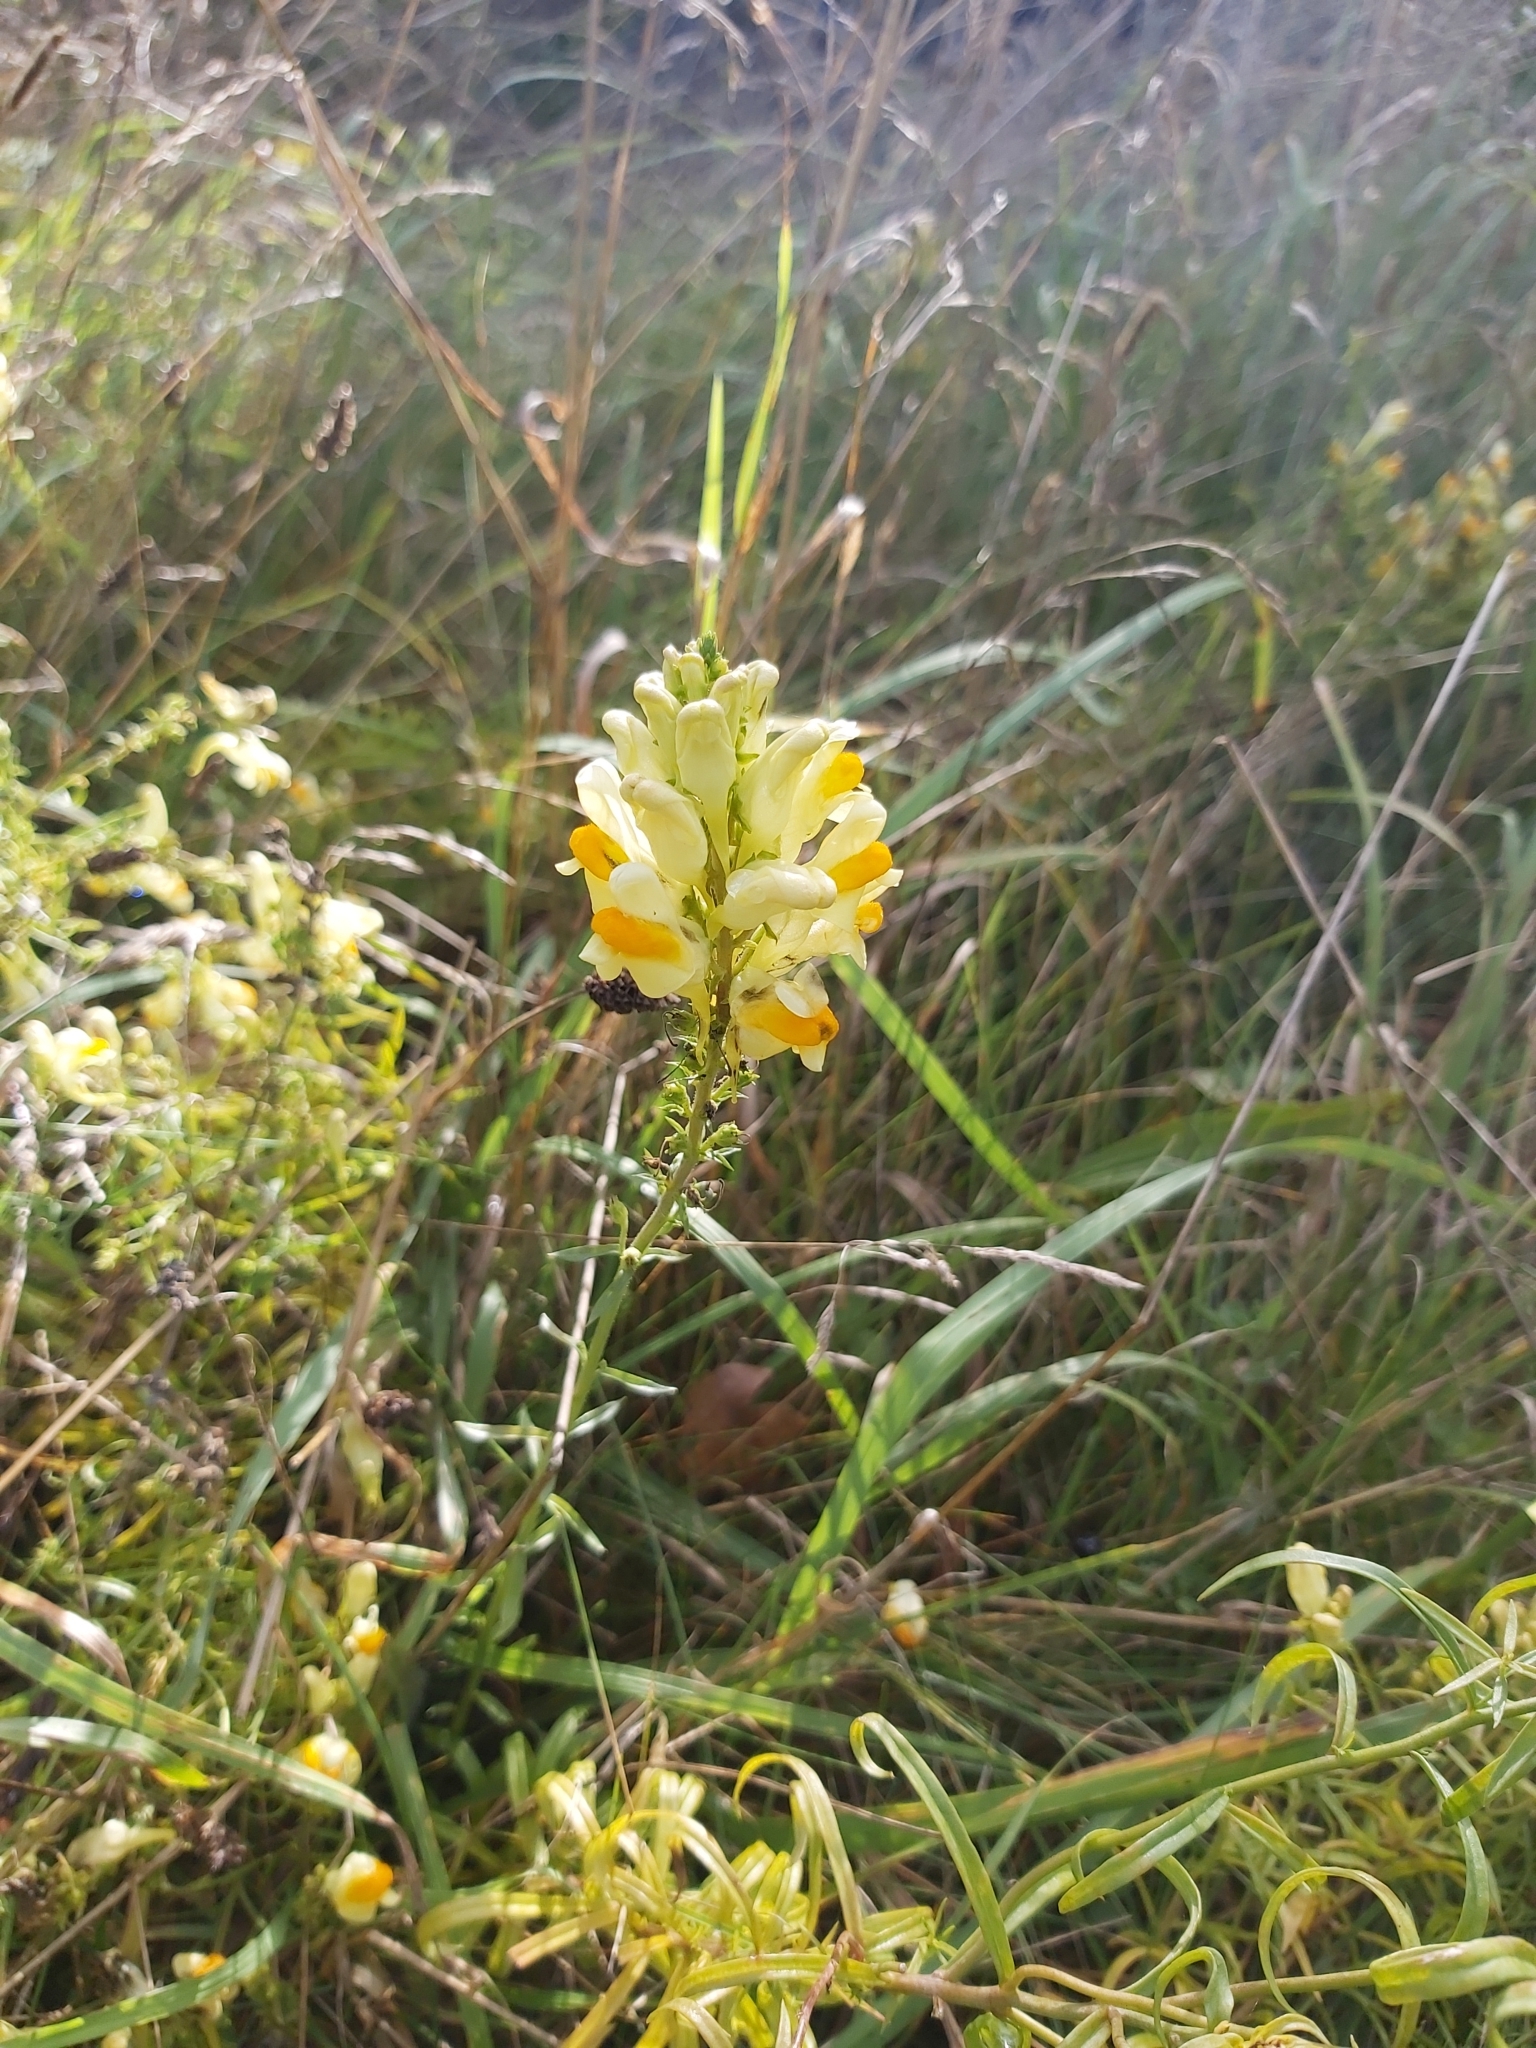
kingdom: Plantae
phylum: Tracheophyta
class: Magnoliopsida
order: Lamiales
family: Plantaginaceae
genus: Linaria
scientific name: Linaria vulgaris
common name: Butter and eggs
